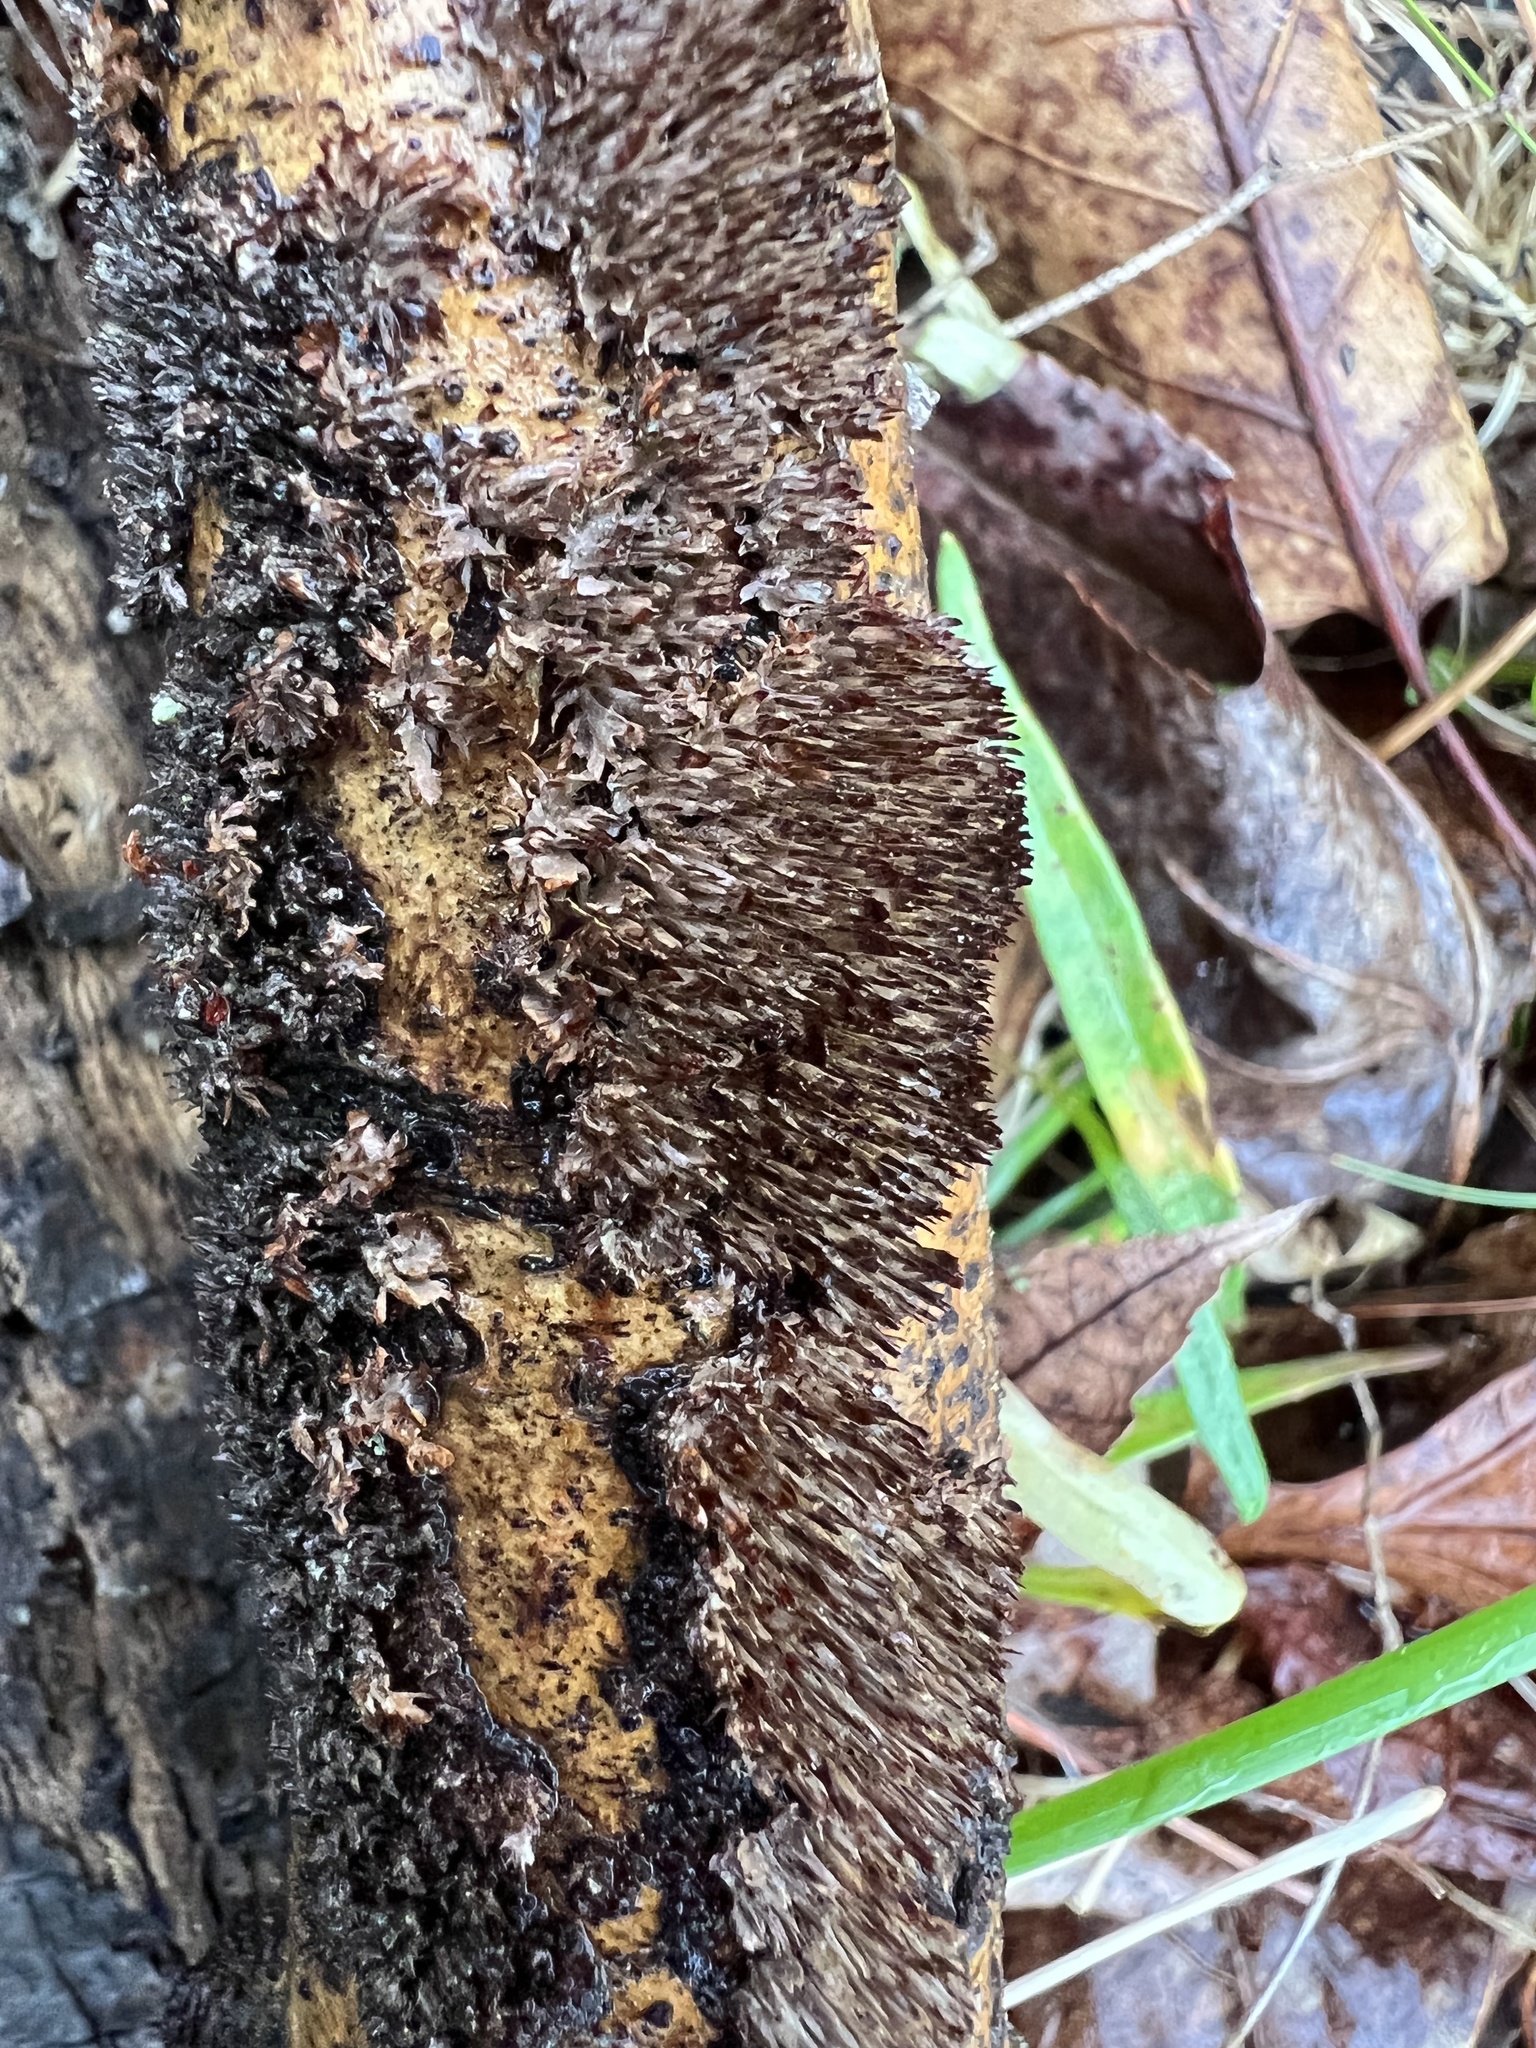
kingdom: Fungi
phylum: Basidiomycota
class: Agaricomycetes
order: Hymenochaetales
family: Hymenochaetaceae
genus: Hydnoporia
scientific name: Hydnoporia olivacea
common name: Brown-toothed crust fungus
